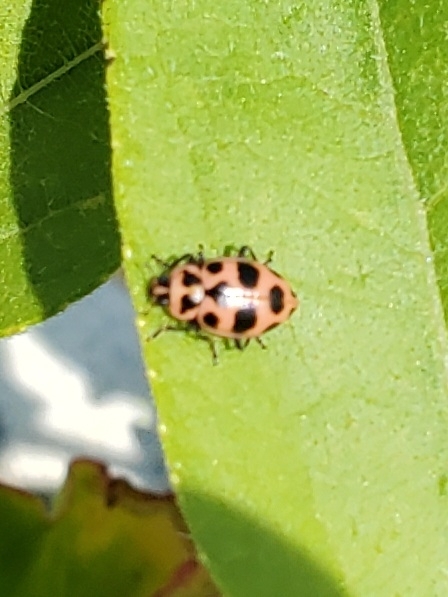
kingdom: Animalia
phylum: Arthropoda
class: Insecta
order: Coleoptera
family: Coccinellidae
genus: Coleomegilla
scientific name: Coleomegilla maculata
